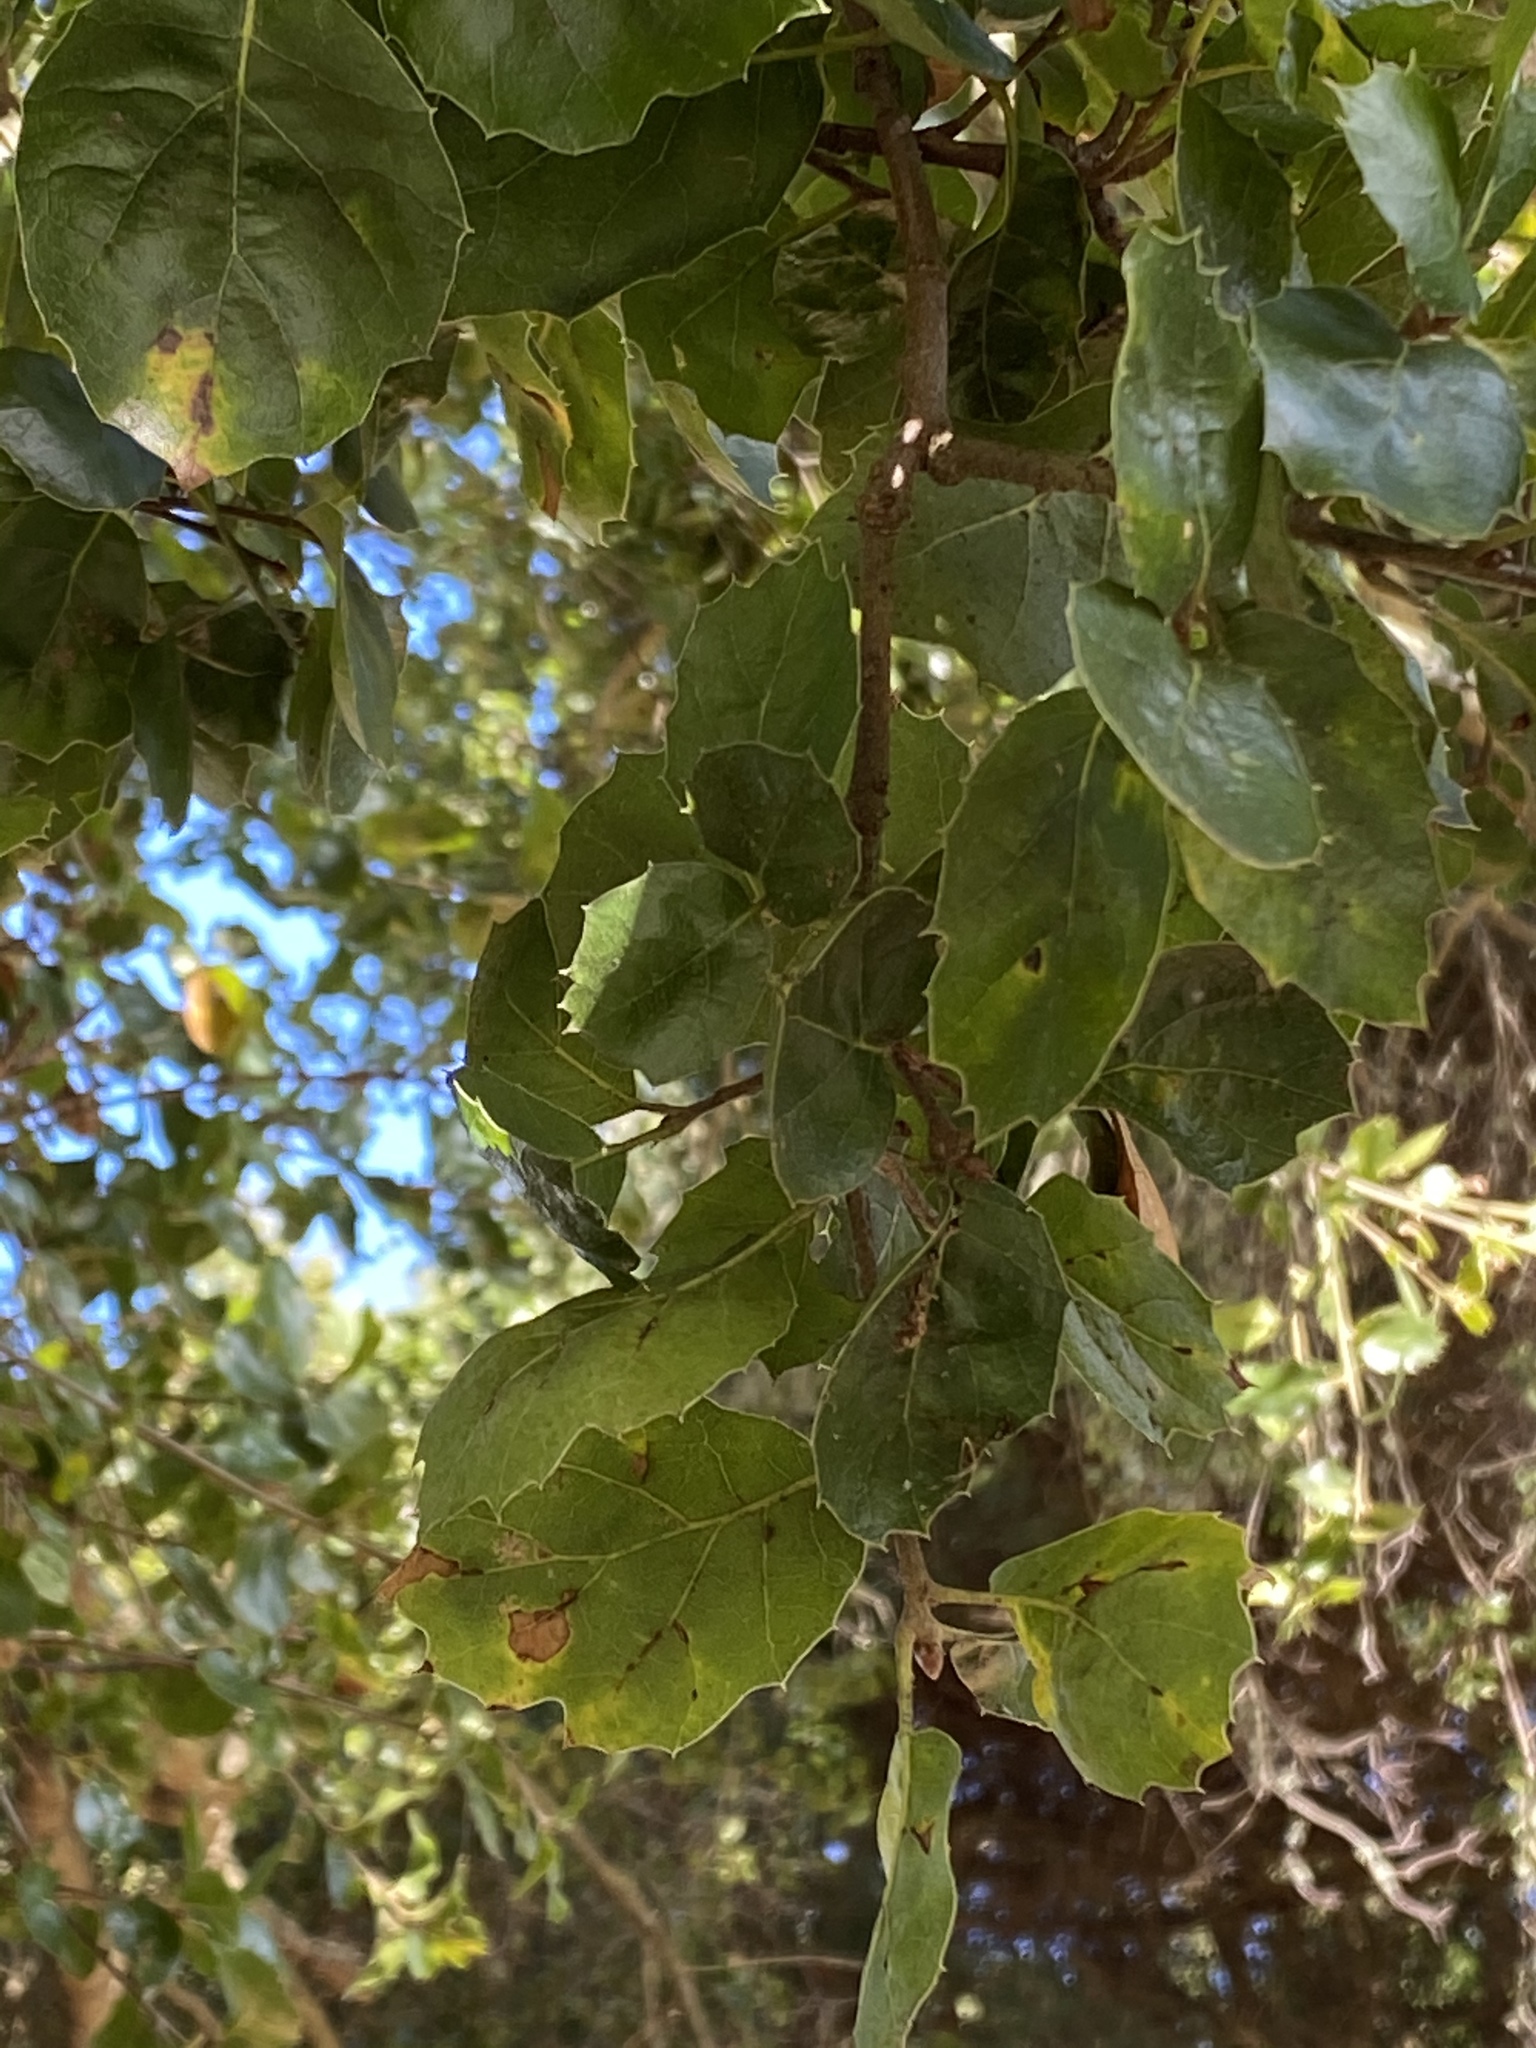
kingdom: Plantae
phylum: Tracheophyta
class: Magnoliopsida
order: Fagales
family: Fagaceae
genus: Quercus
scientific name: Quercus agrifolia
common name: California live oak
